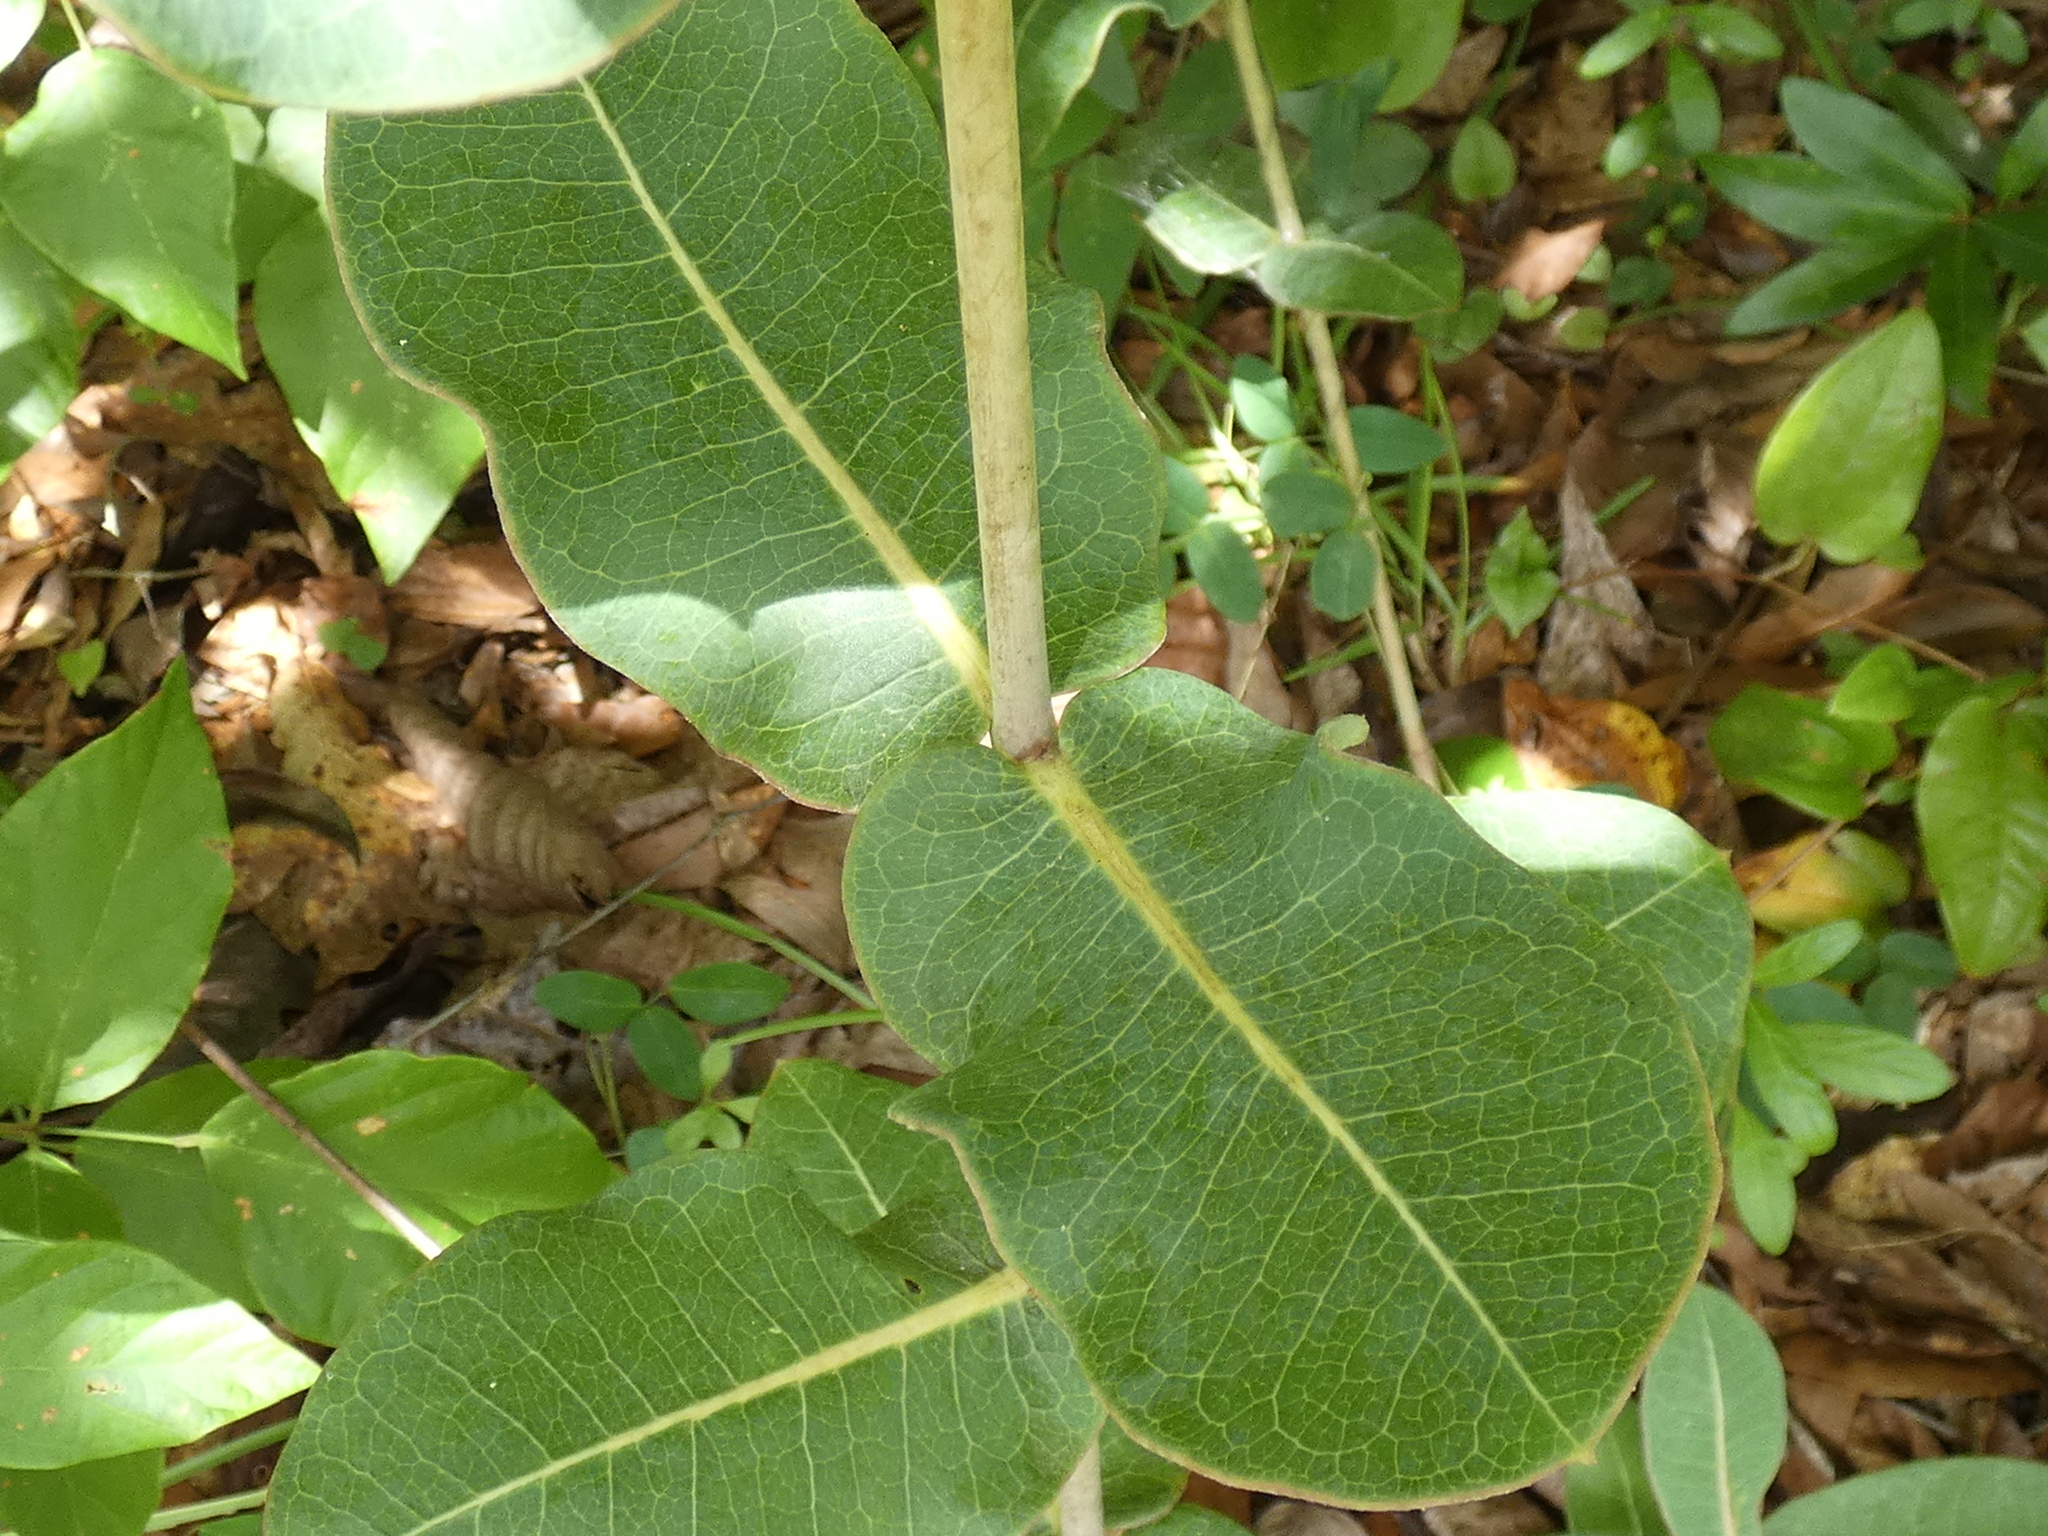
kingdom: Plantae
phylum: Tracheophyta
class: Magnoliopsida
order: Gentianales
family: Apocynaceae
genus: Asclepias
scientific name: Asclepias amplexicaulis
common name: Blunt-leaf milkweed
